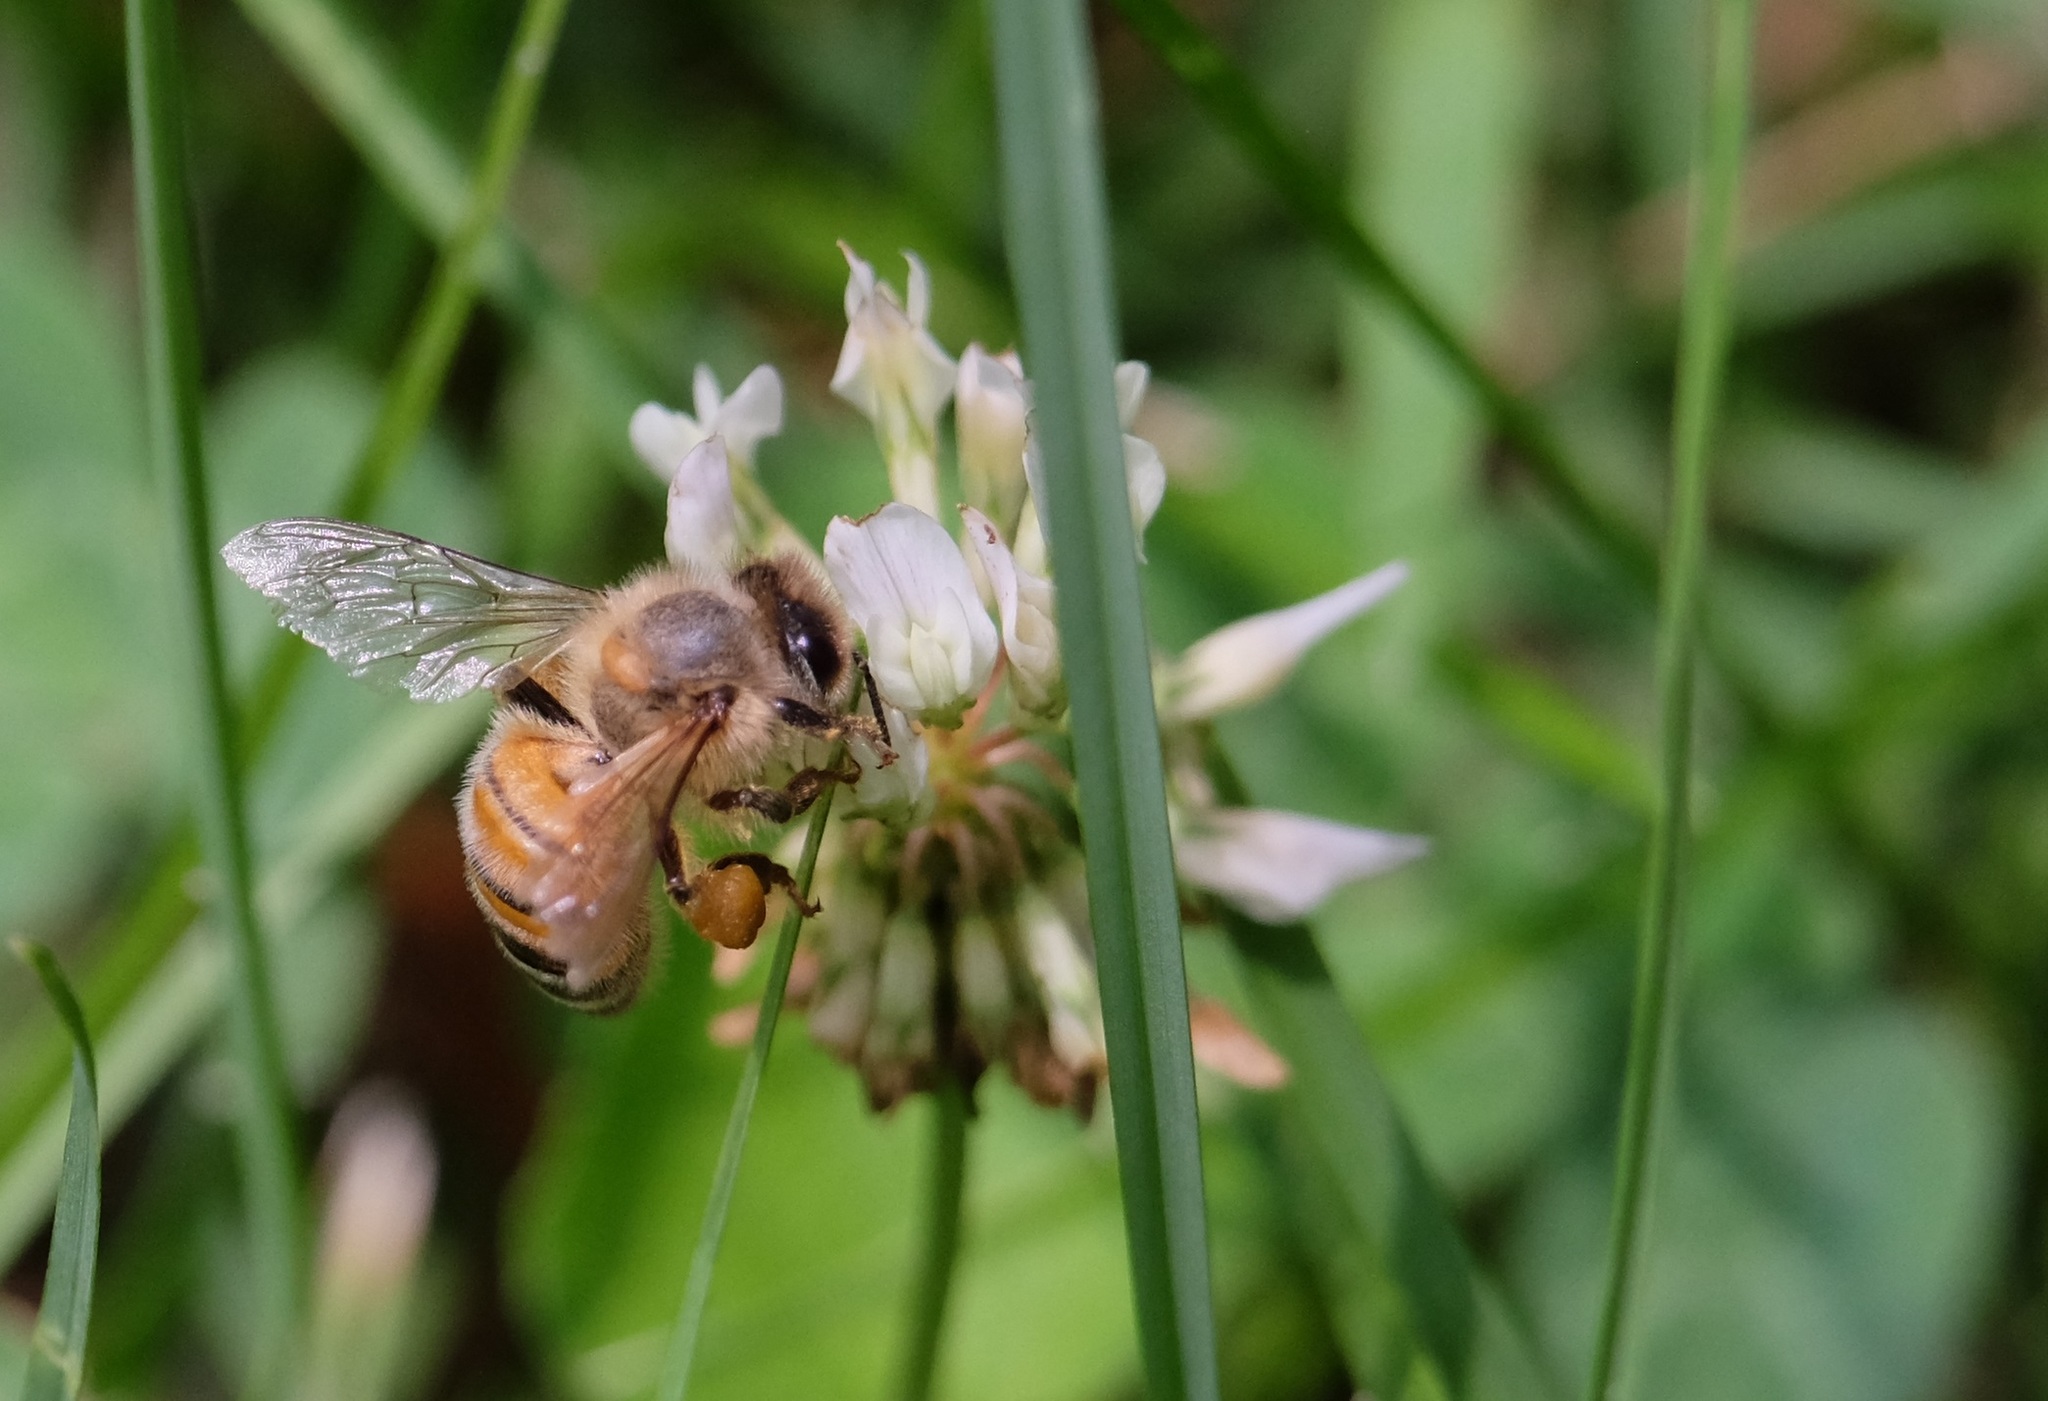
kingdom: Animalia
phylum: Arthropoda
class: Insecta
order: Hymenoptera
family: Apidae
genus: Apis
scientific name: Apis mellifera
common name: Honey bee
